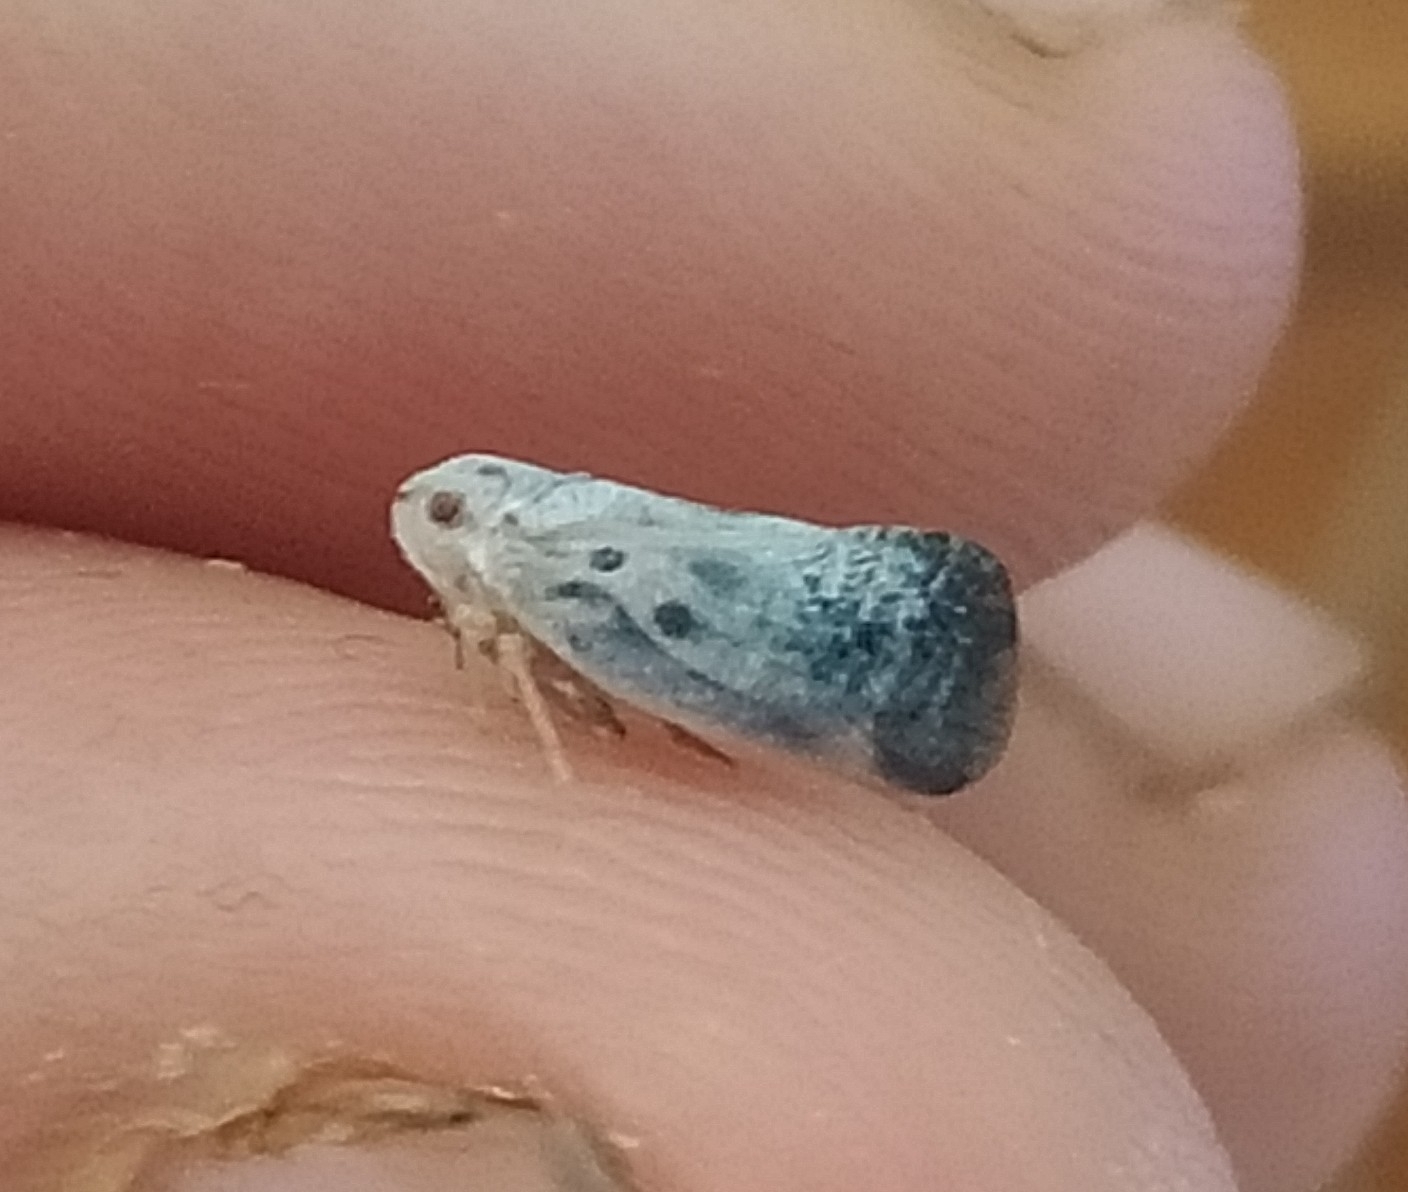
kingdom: Animalia
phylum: Arthropoda
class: Insecta
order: Hemiptera
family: Flatidae
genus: Metcalfa
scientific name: Metcalfa pruinosa
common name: Citrus flatid planthopper
